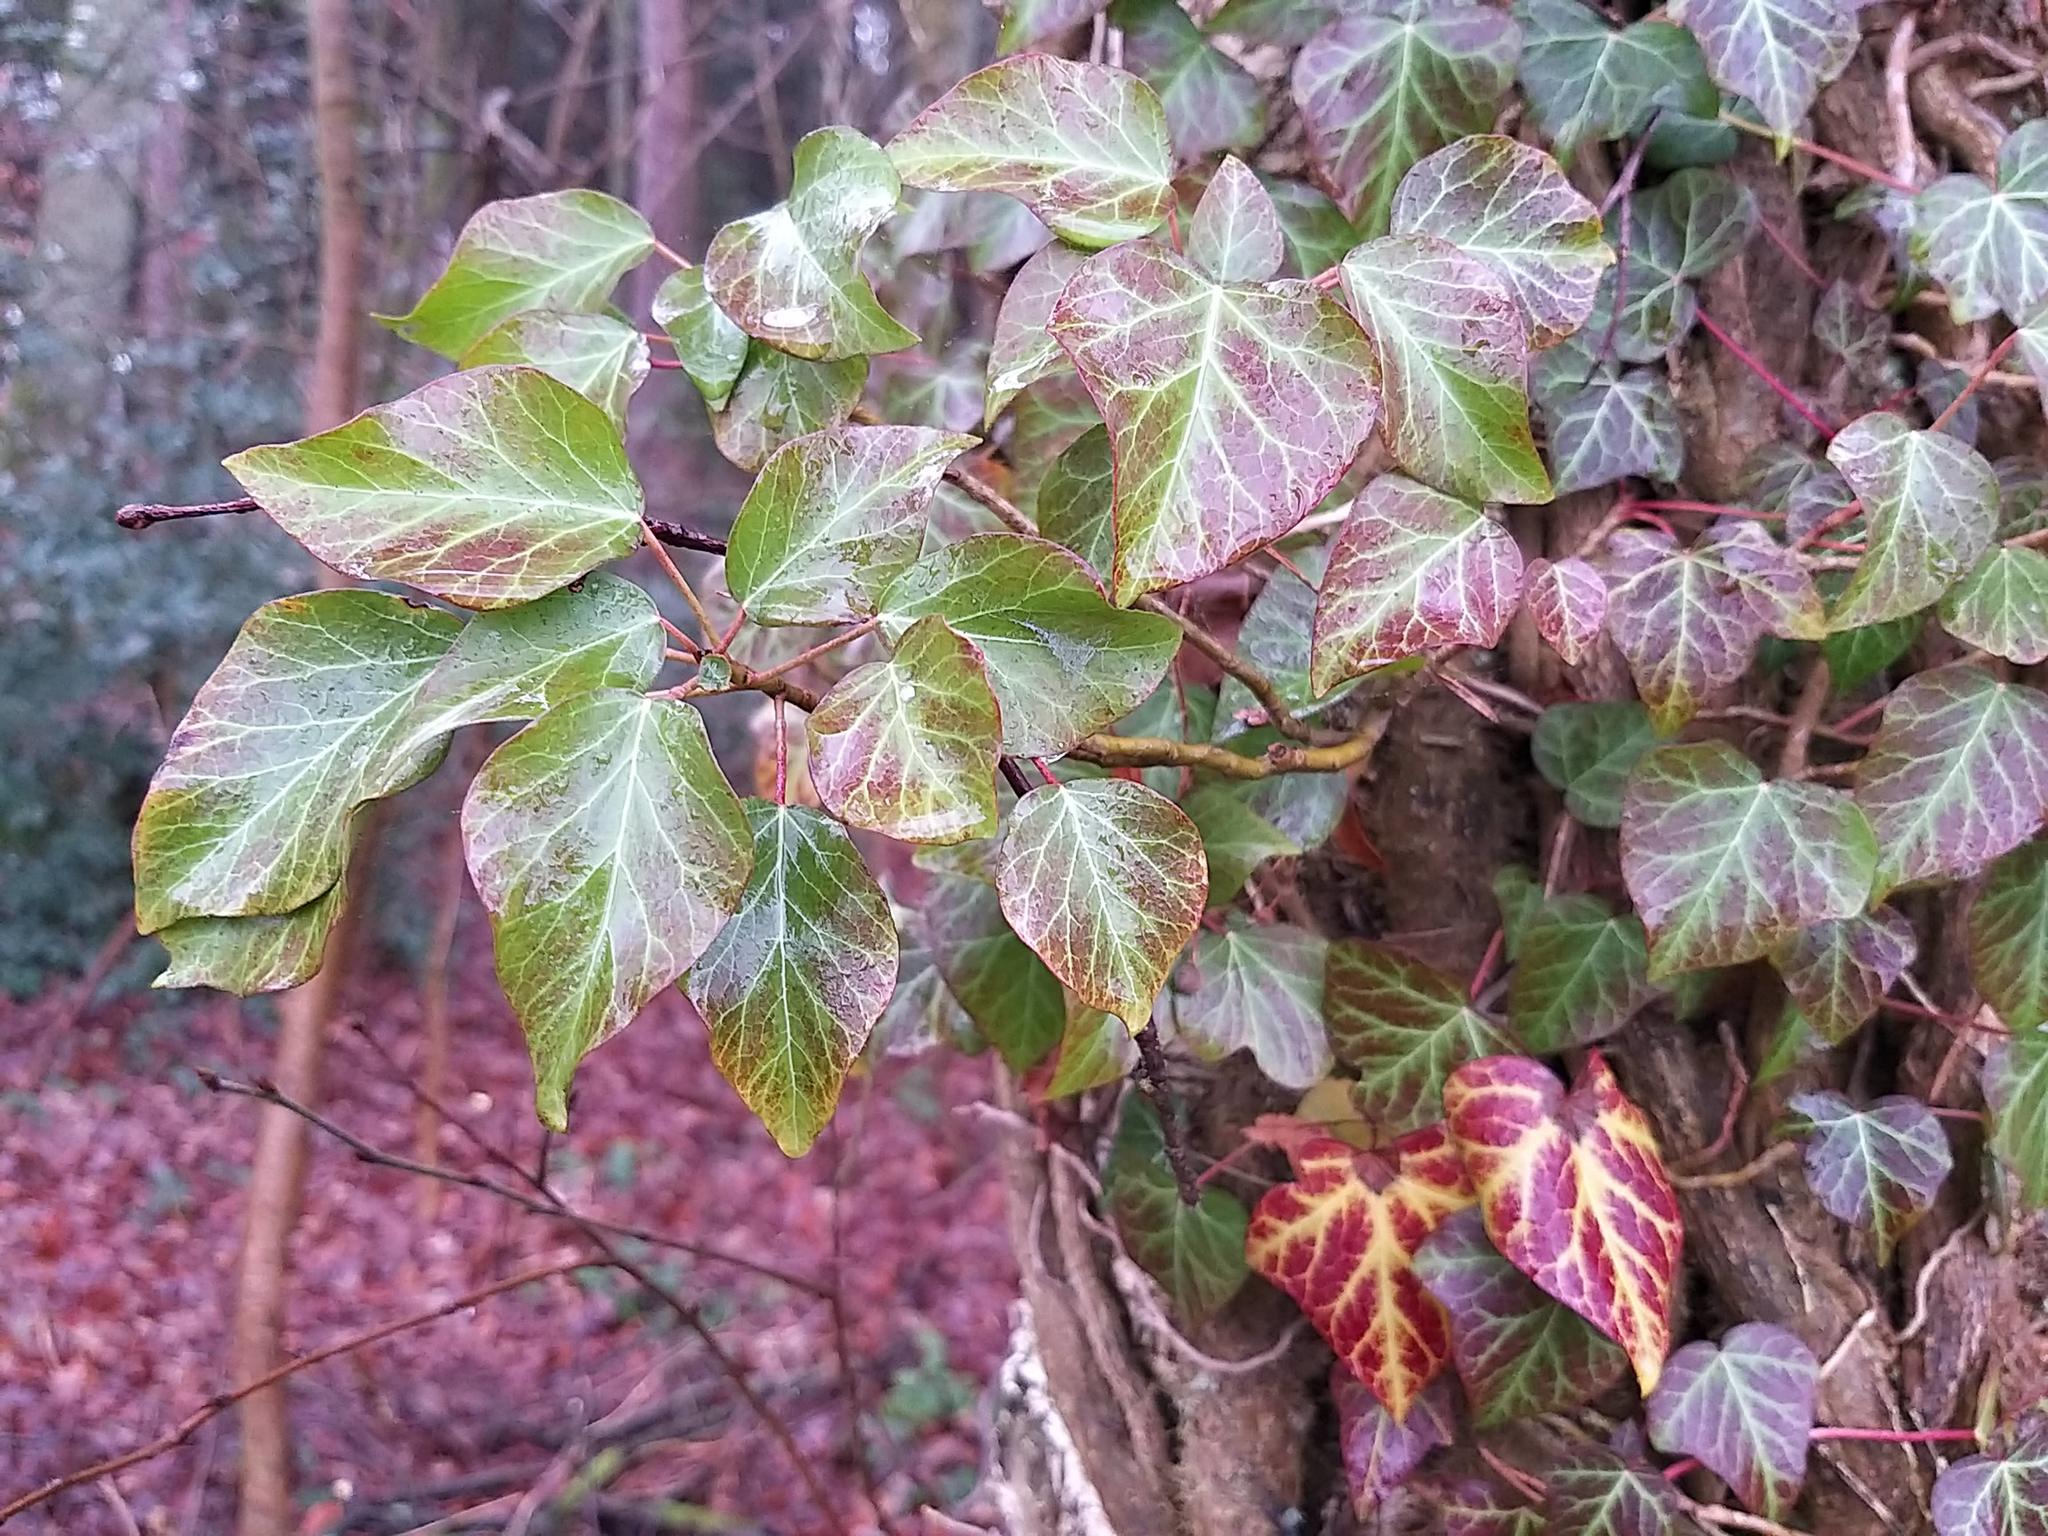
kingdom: Plantae
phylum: Tracheophyta
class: Magnoliopsida
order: Apiales
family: Araliaceae
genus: Hedera
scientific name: Hedera helix
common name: Ivy
